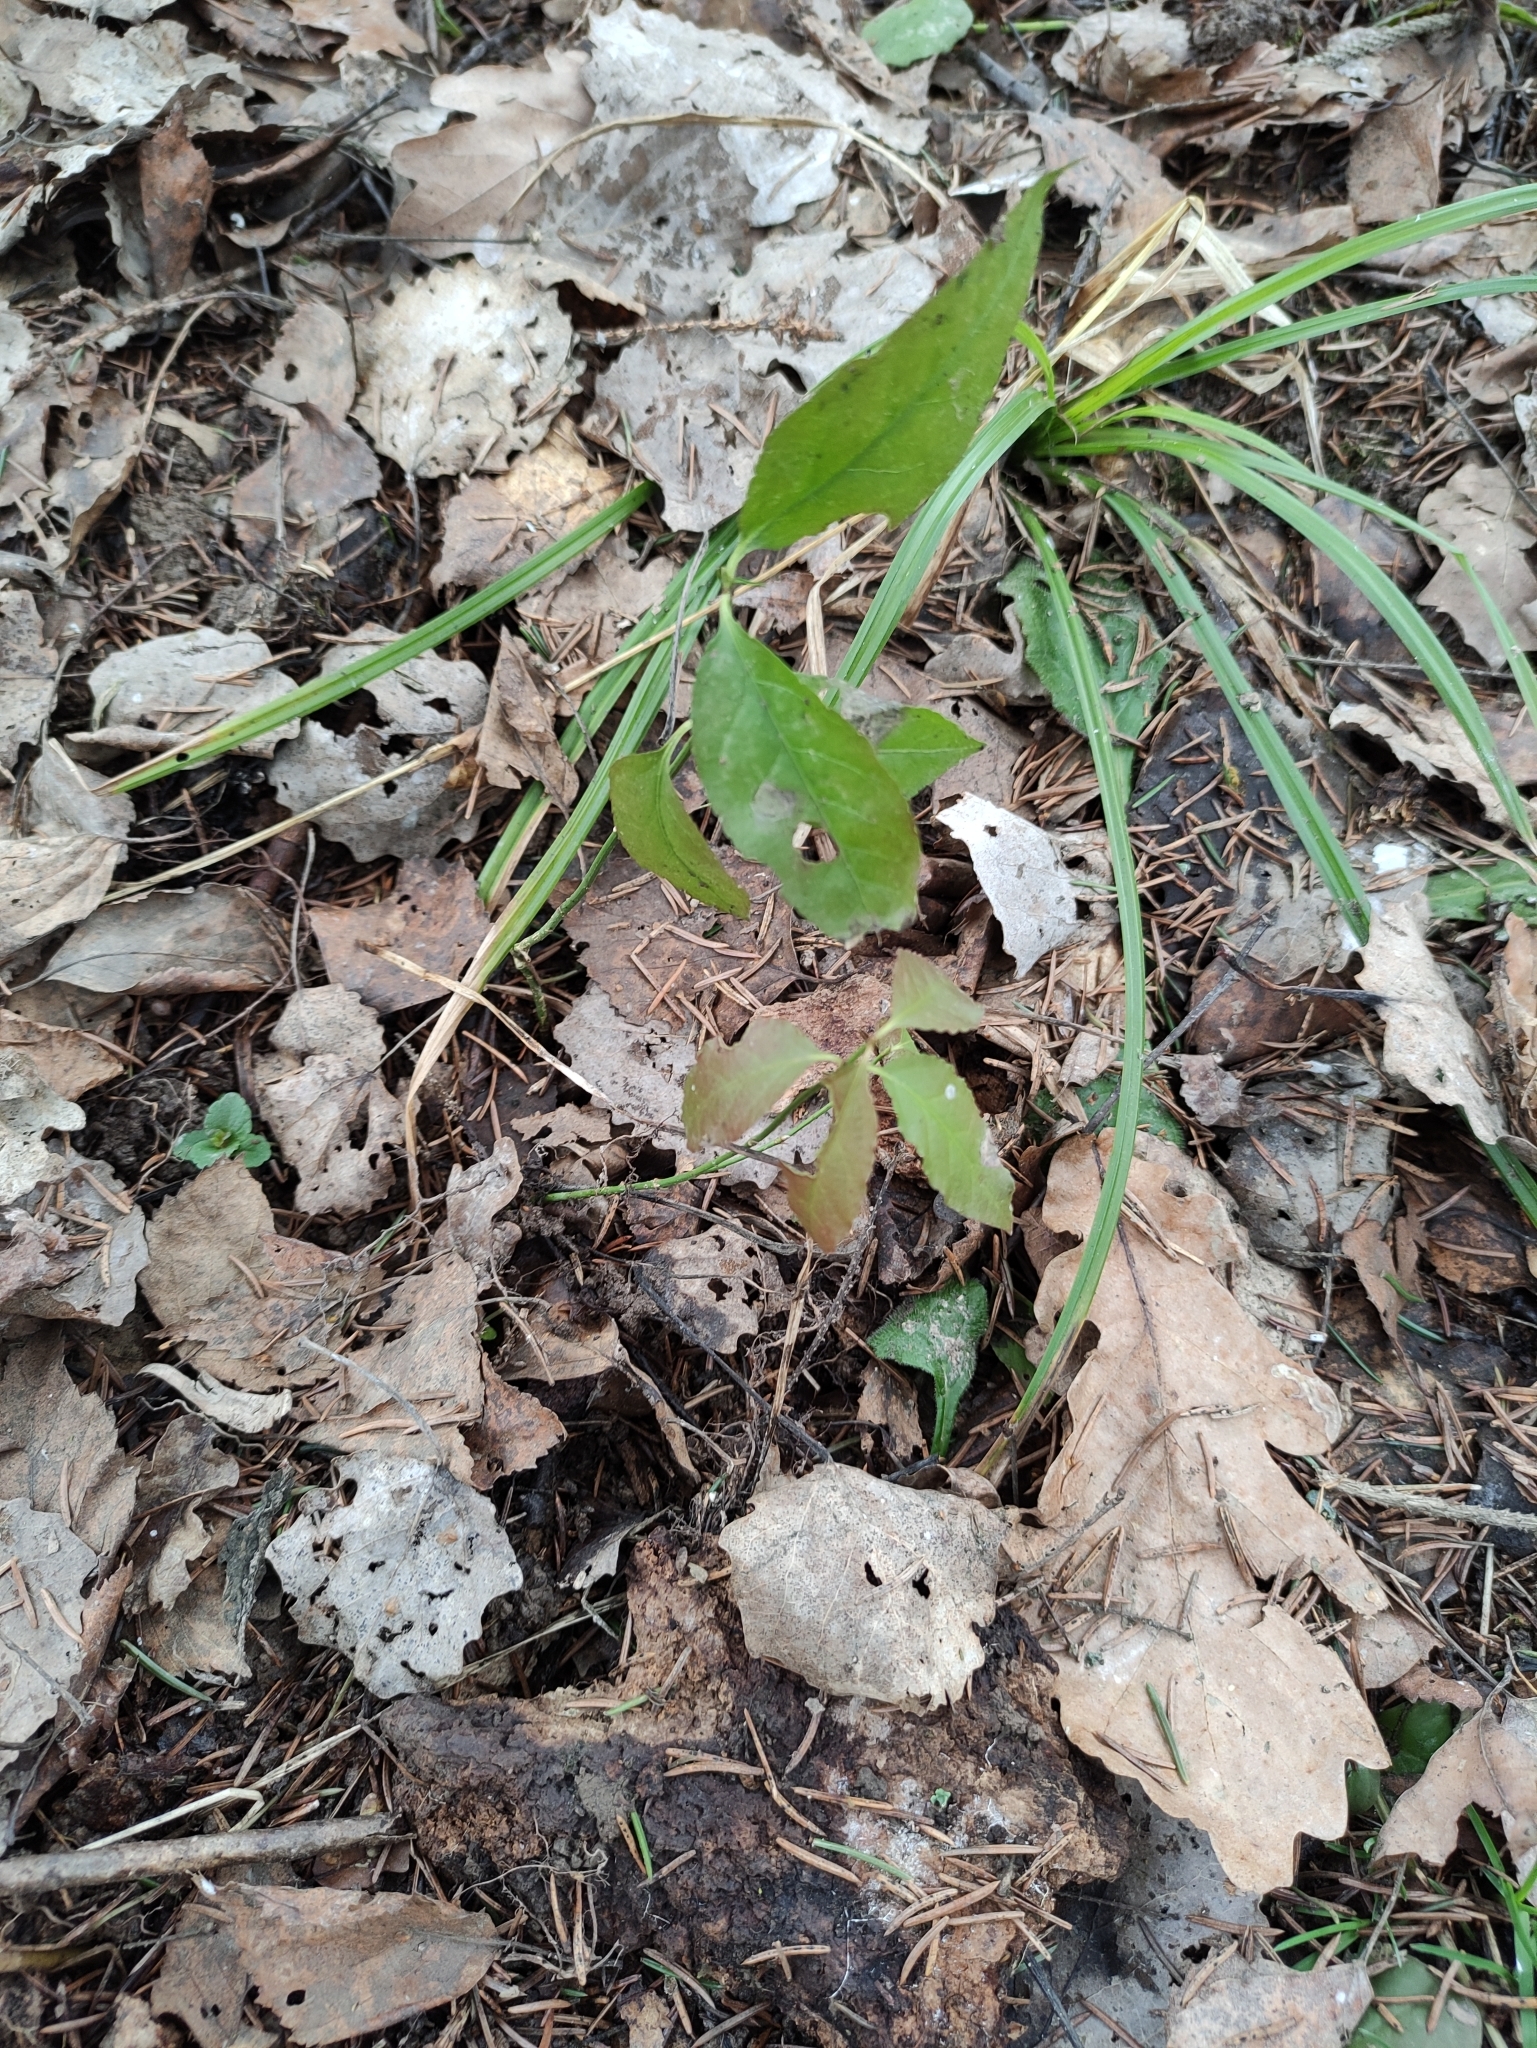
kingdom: Plantae
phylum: Tracheophyta
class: Magnoliopsida
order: Celastrales
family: Celastraceae
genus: Euonymus
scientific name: Euonymus europaeus
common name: Spindle
